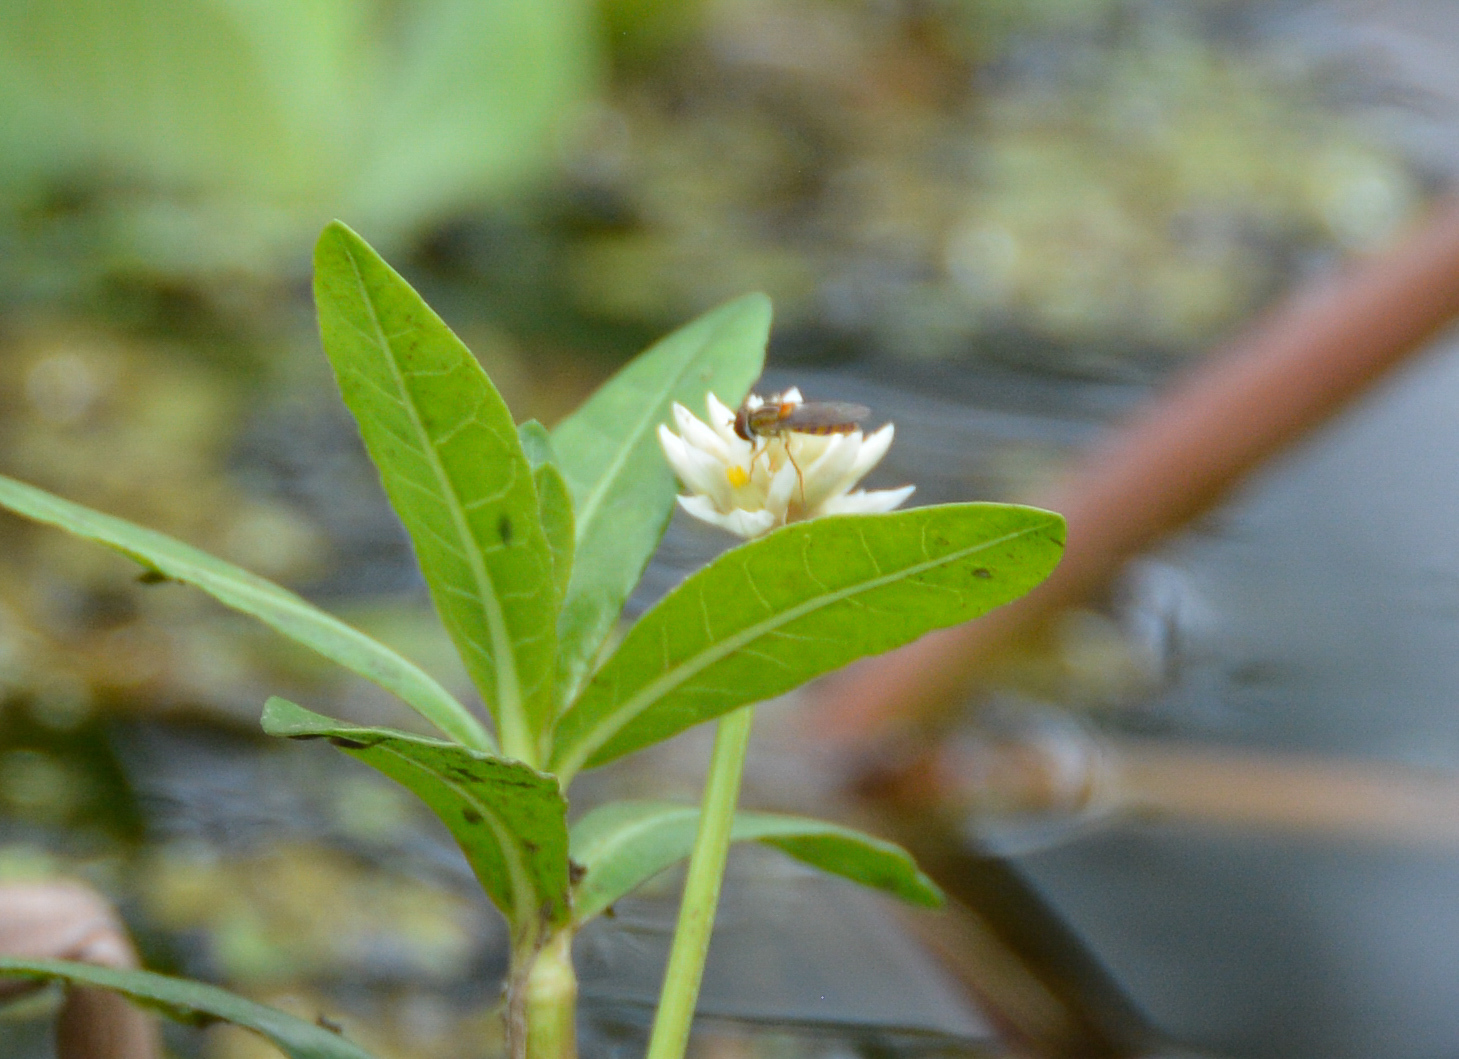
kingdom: Animalia
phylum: Arthropoda
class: Insecta
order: Diptera
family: Syrphidae
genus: Toxomerus
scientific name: Toxomerus jussiaeae
